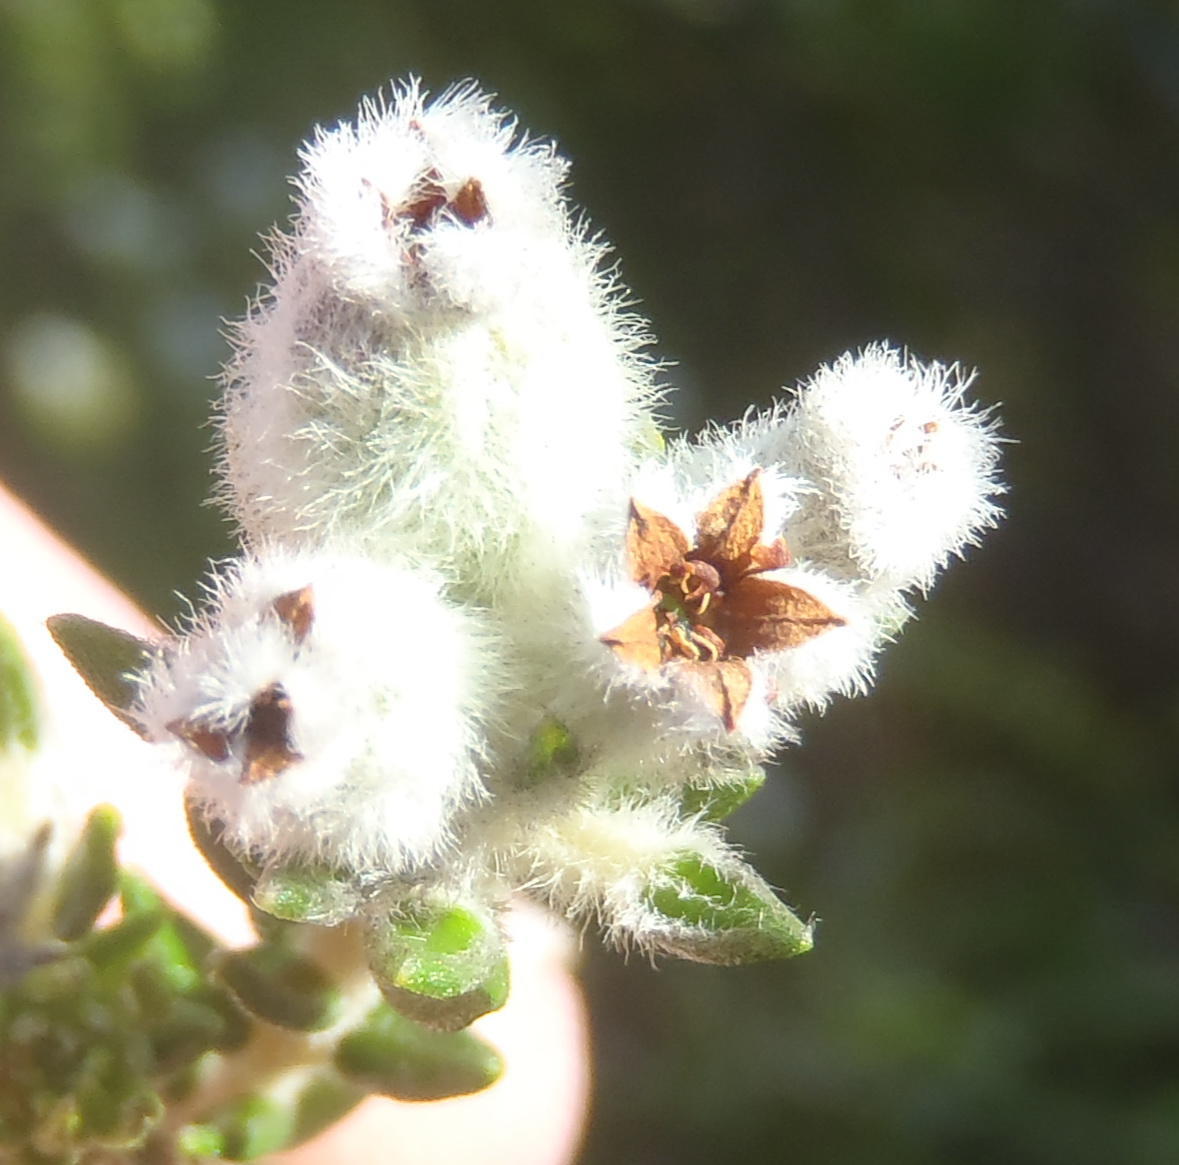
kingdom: Plantae
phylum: Tracheophyta
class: Magnoliopsida
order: Rosales
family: Rhamnaceae
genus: Phylica
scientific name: Phylica purpurea
